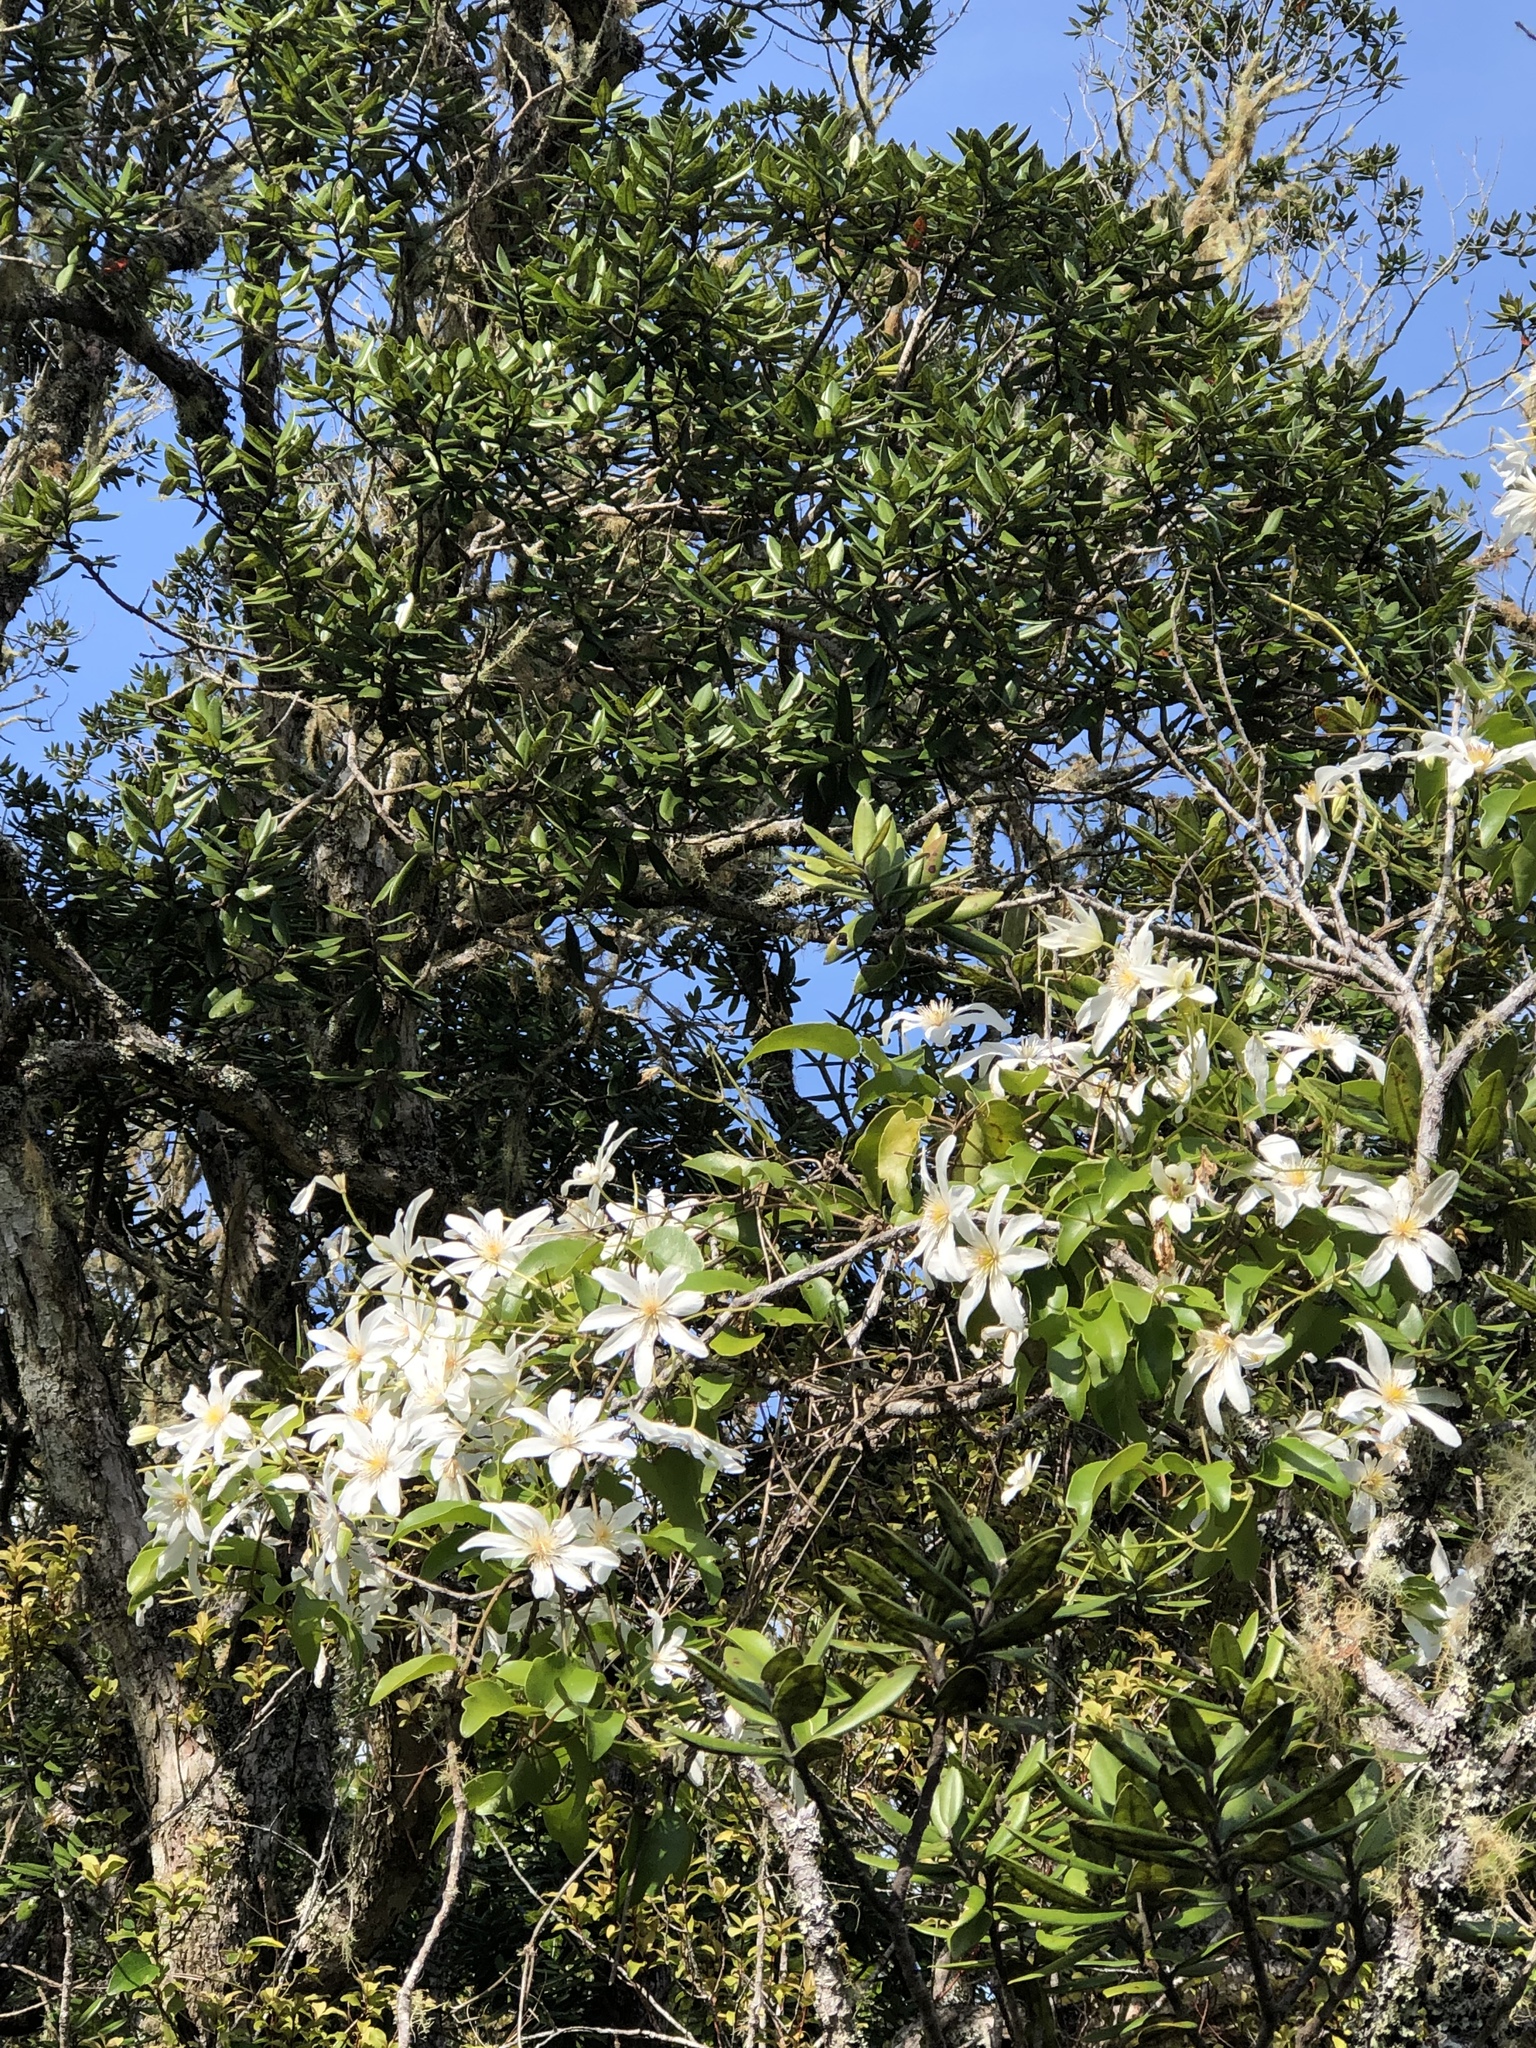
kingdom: Plantae
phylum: Tracheophyta
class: Magnoliopsida
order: Ranunculales
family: Ranunculaceae
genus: Clematis
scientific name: Clematis paniculata
